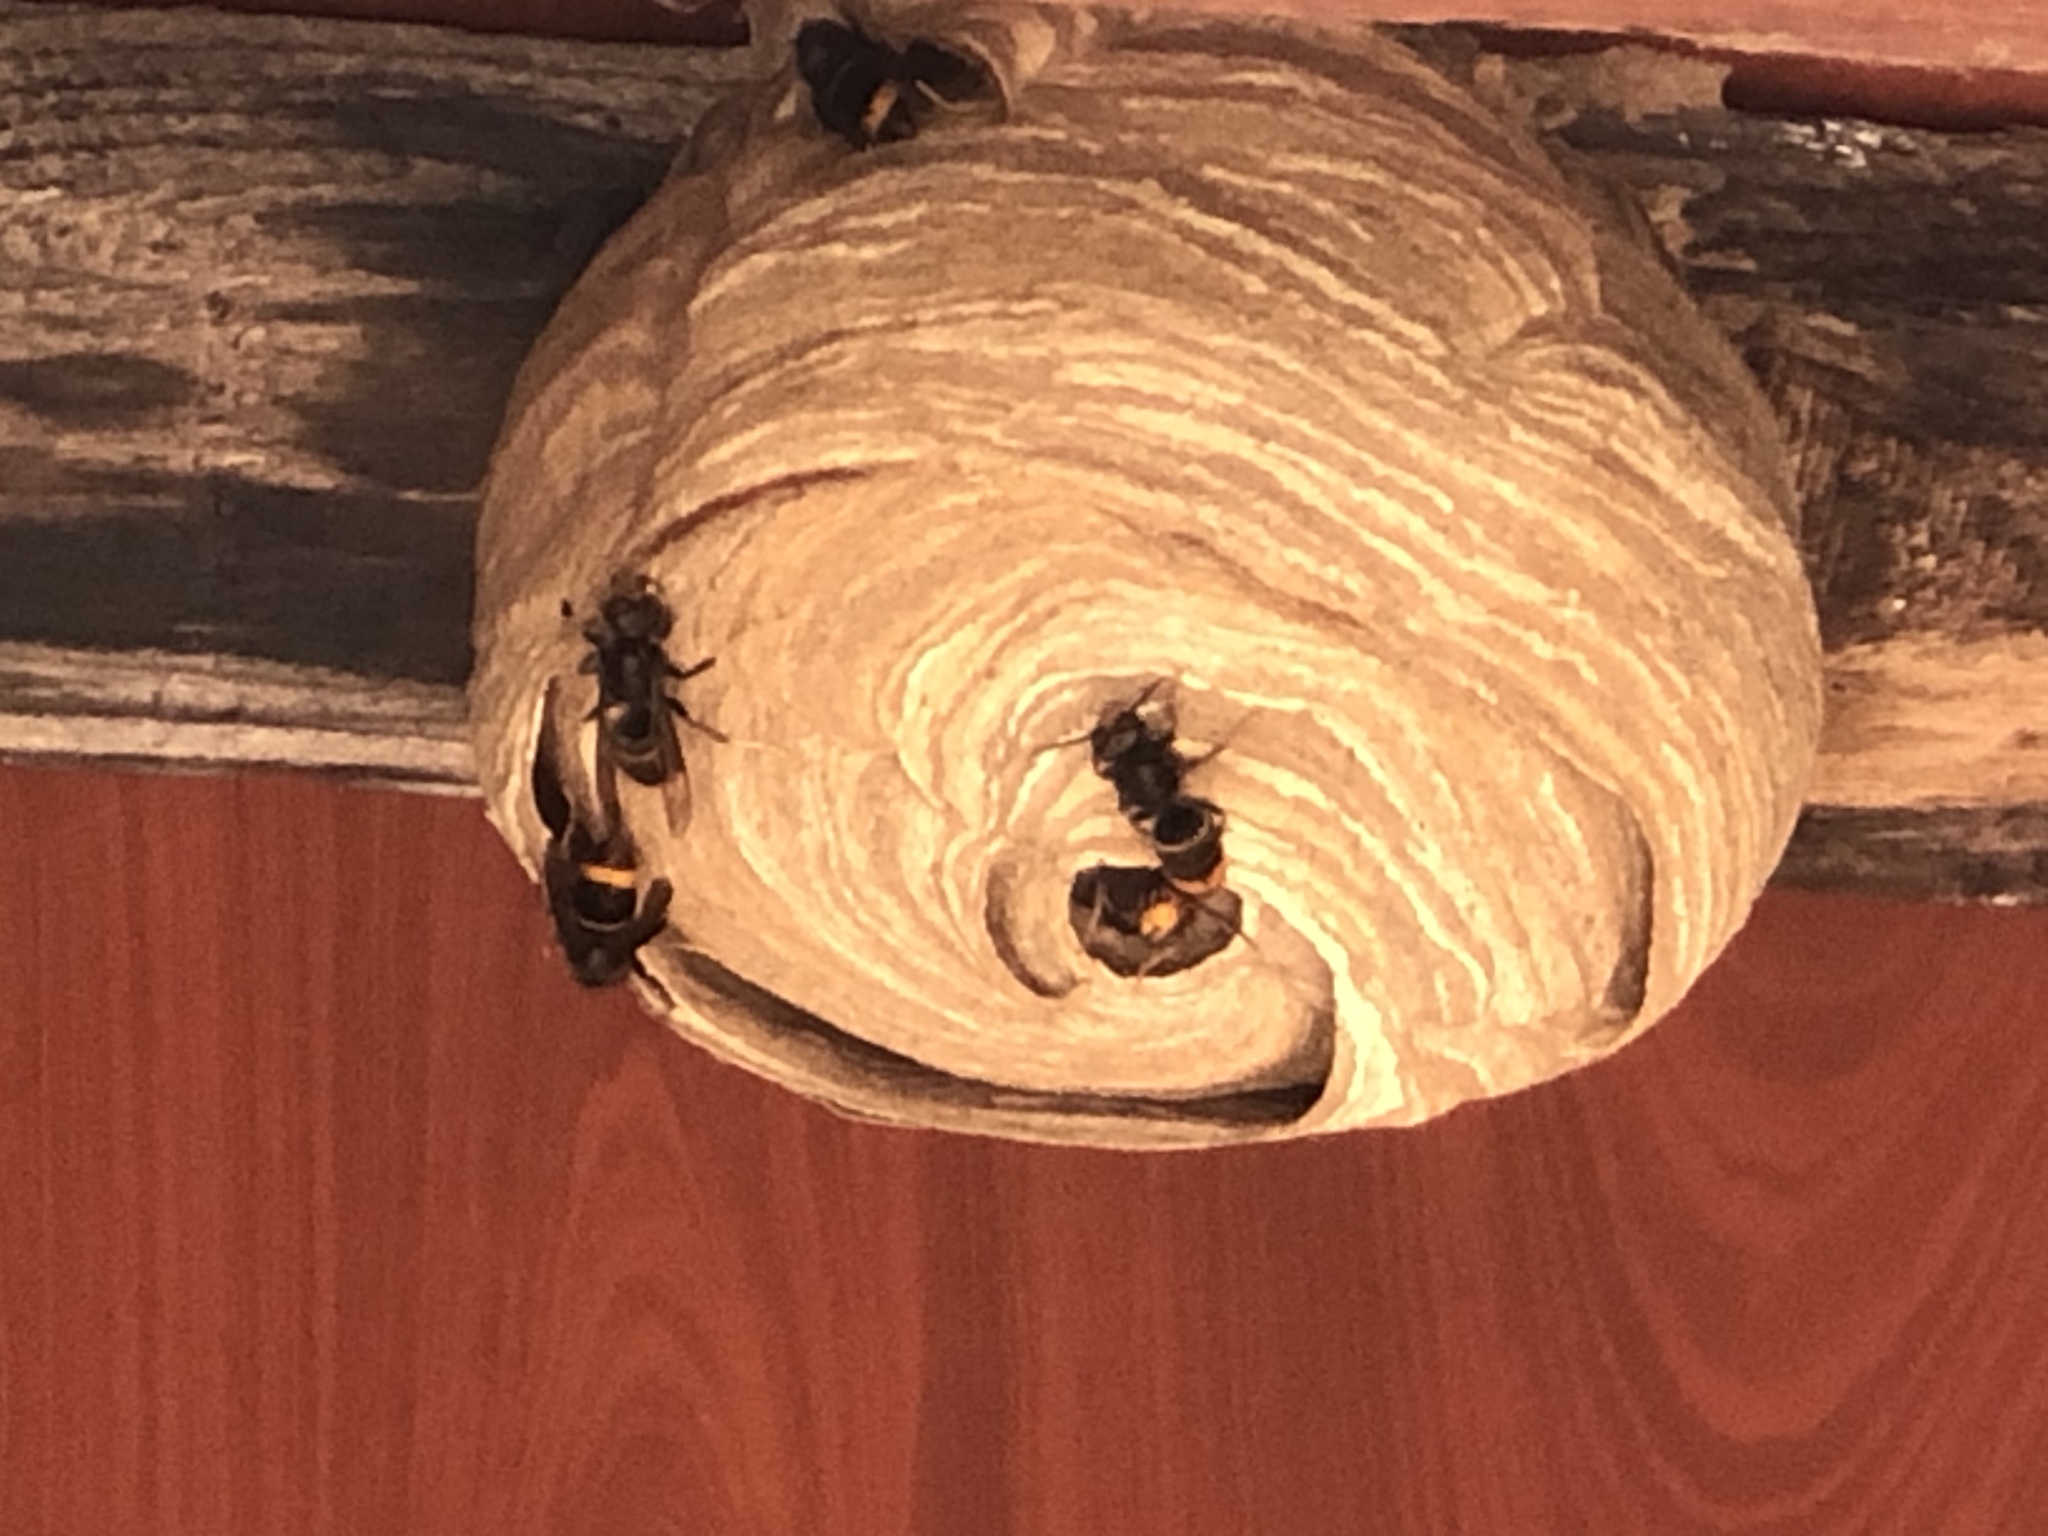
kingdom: Animalia
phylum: Arthropoda
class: Insecta
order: Hymenoptera
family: Vespidae
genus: Vespa
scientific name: Vespa velutina
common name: Asian hornet
